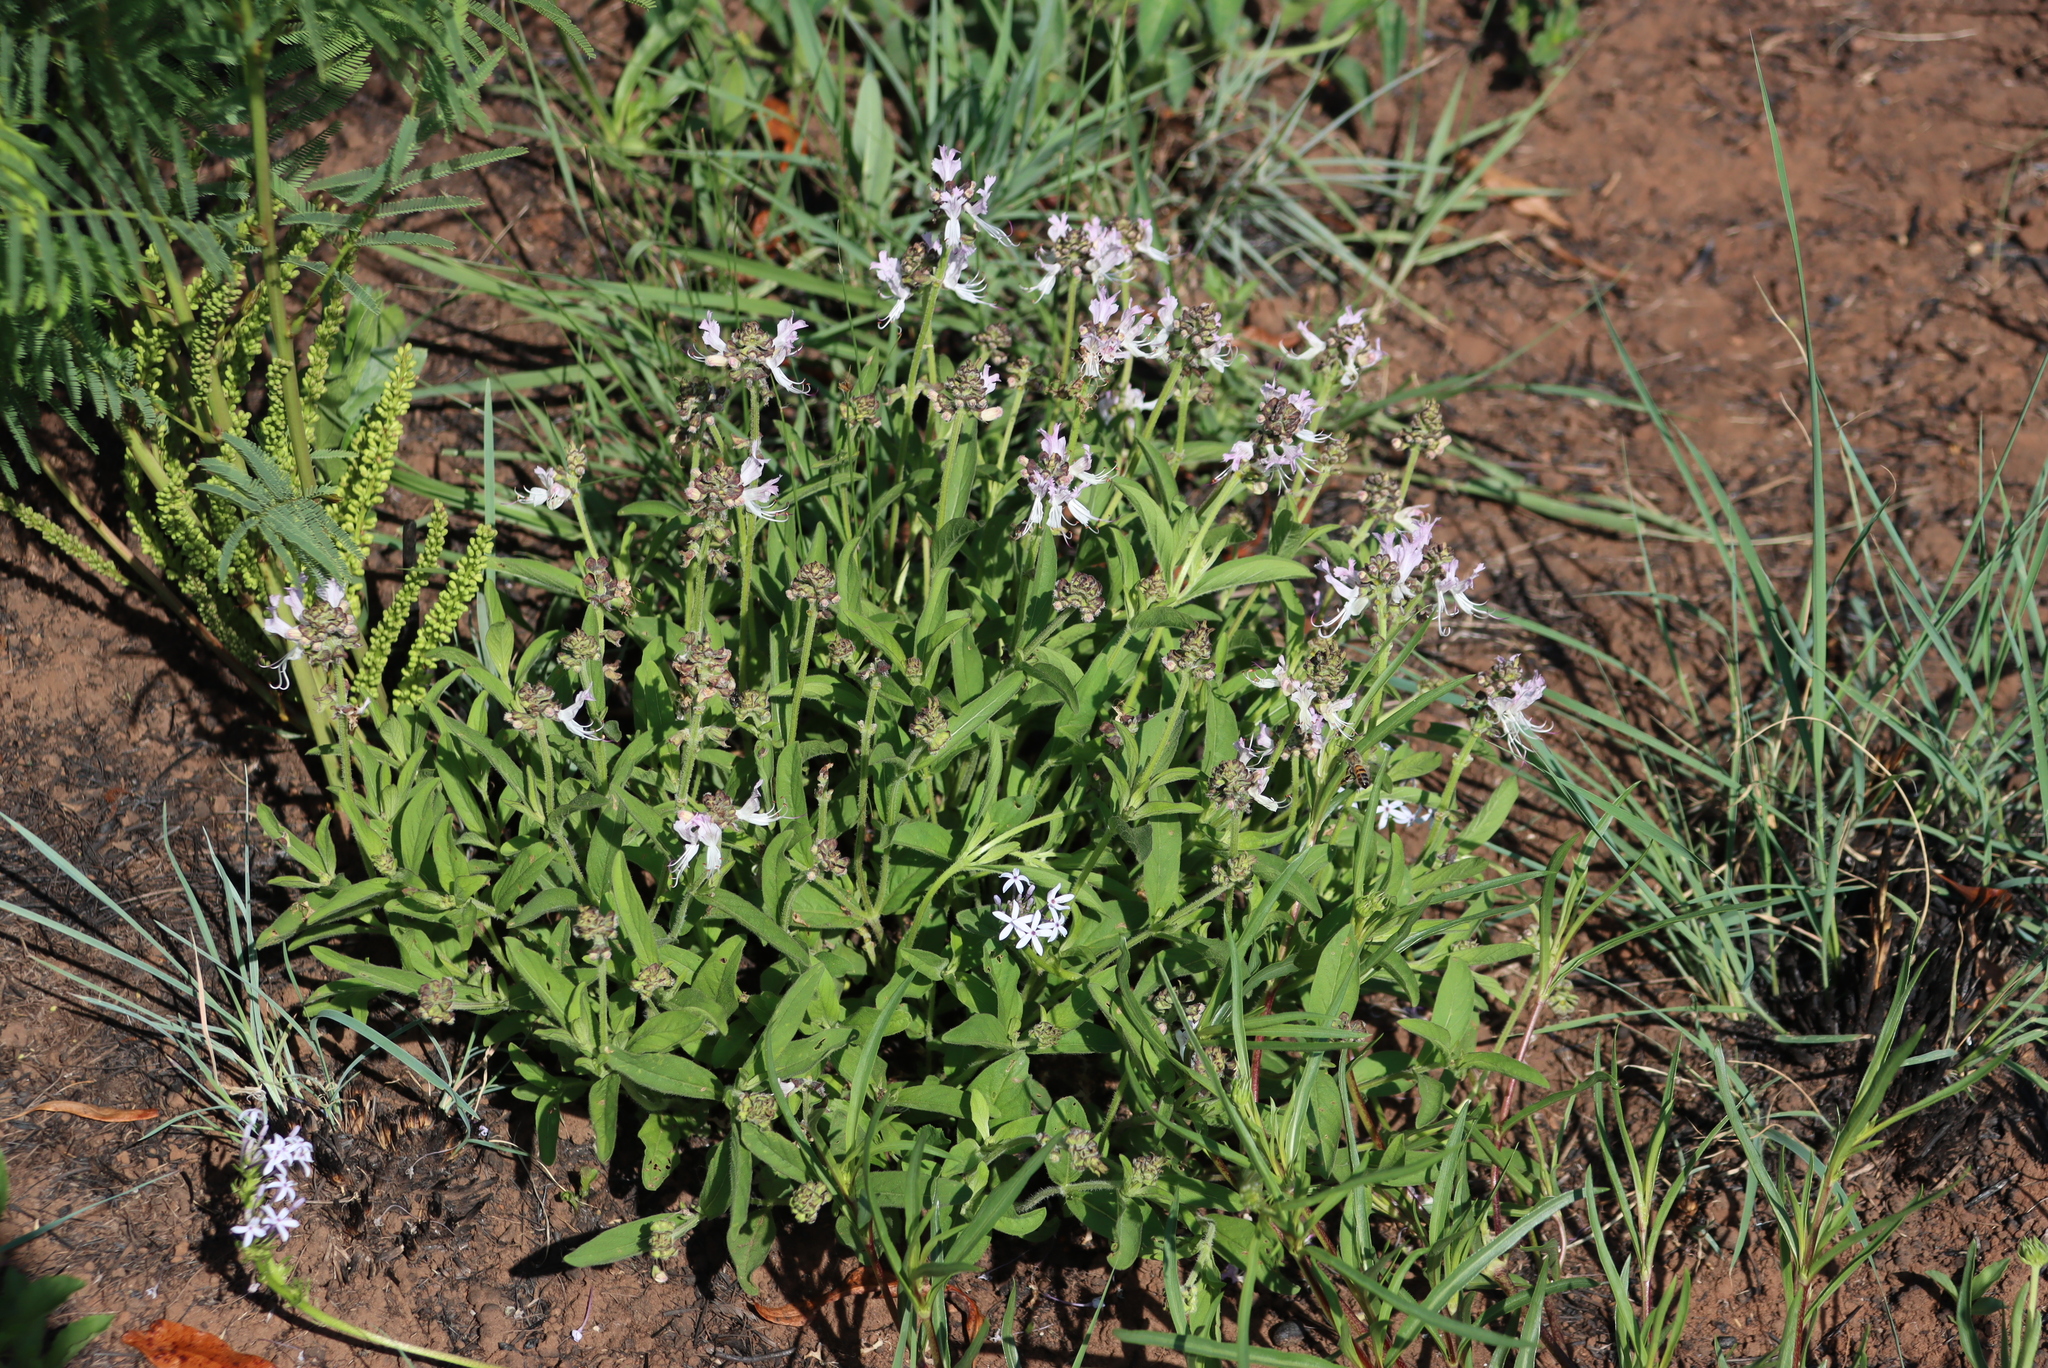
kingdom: Plantae
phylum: Tracheophyta
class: Magnoliopsida
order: Lamiales
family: Lamiaceae
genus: Ocimum
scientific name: Ocimum obovatum
